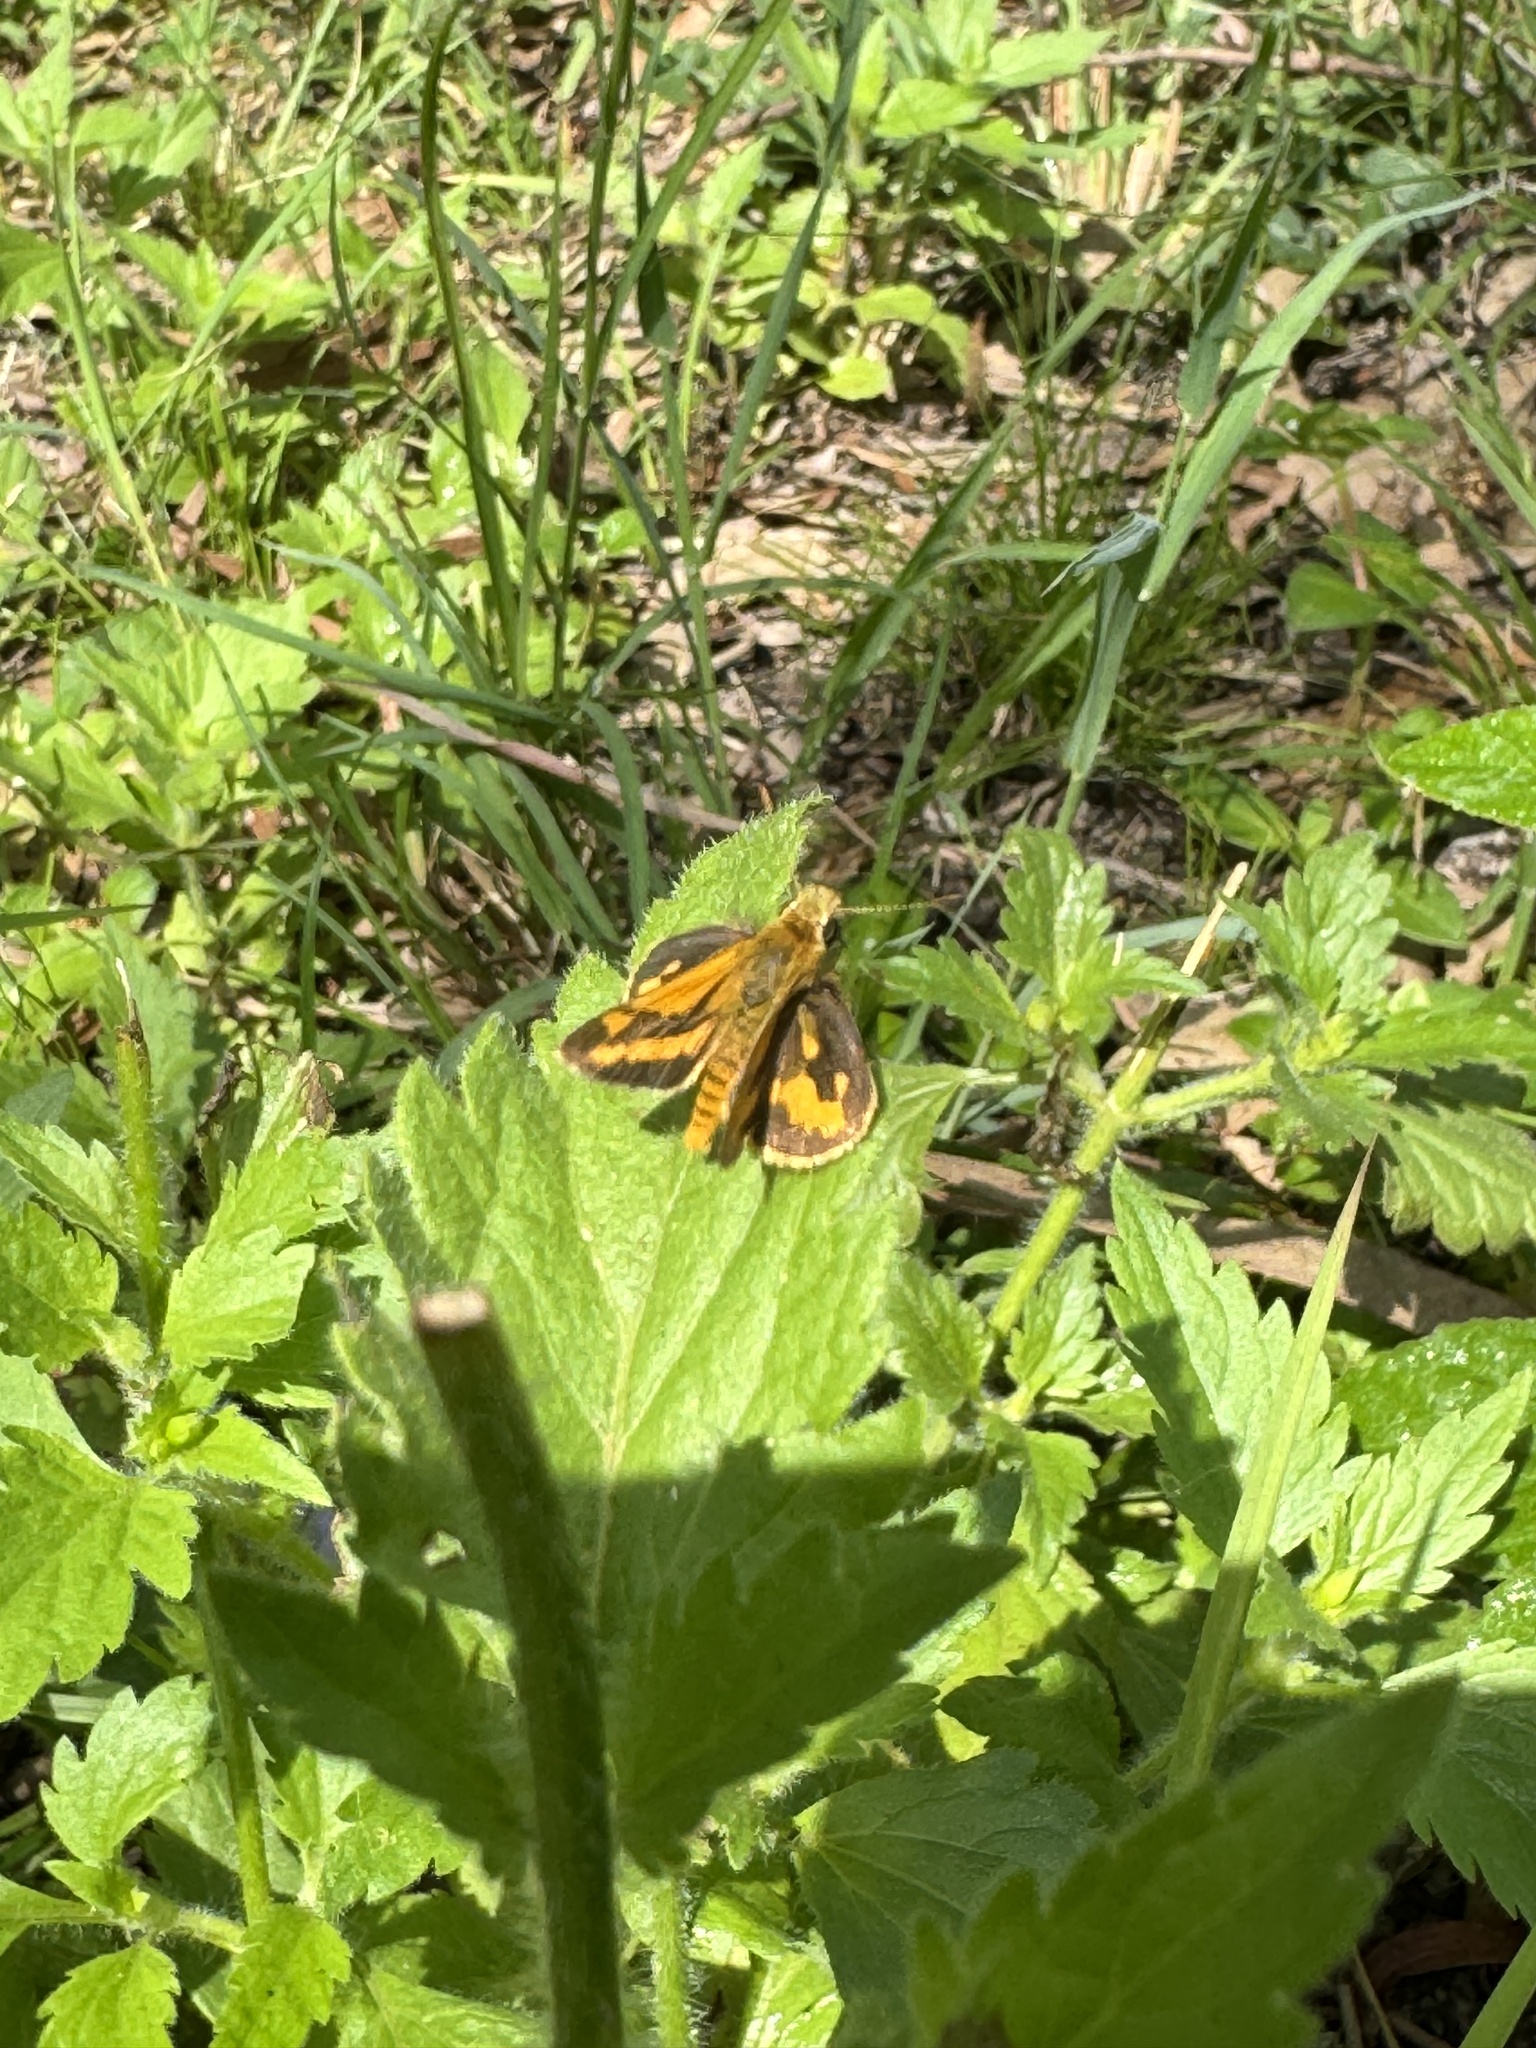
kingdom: Animalia
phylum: Arthropoda
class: Insecta
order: Lepidoptera
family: Hesperiidae
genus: Ocybadistes
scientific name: Ocybadistes walkeri
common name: Yellow-banded dart
